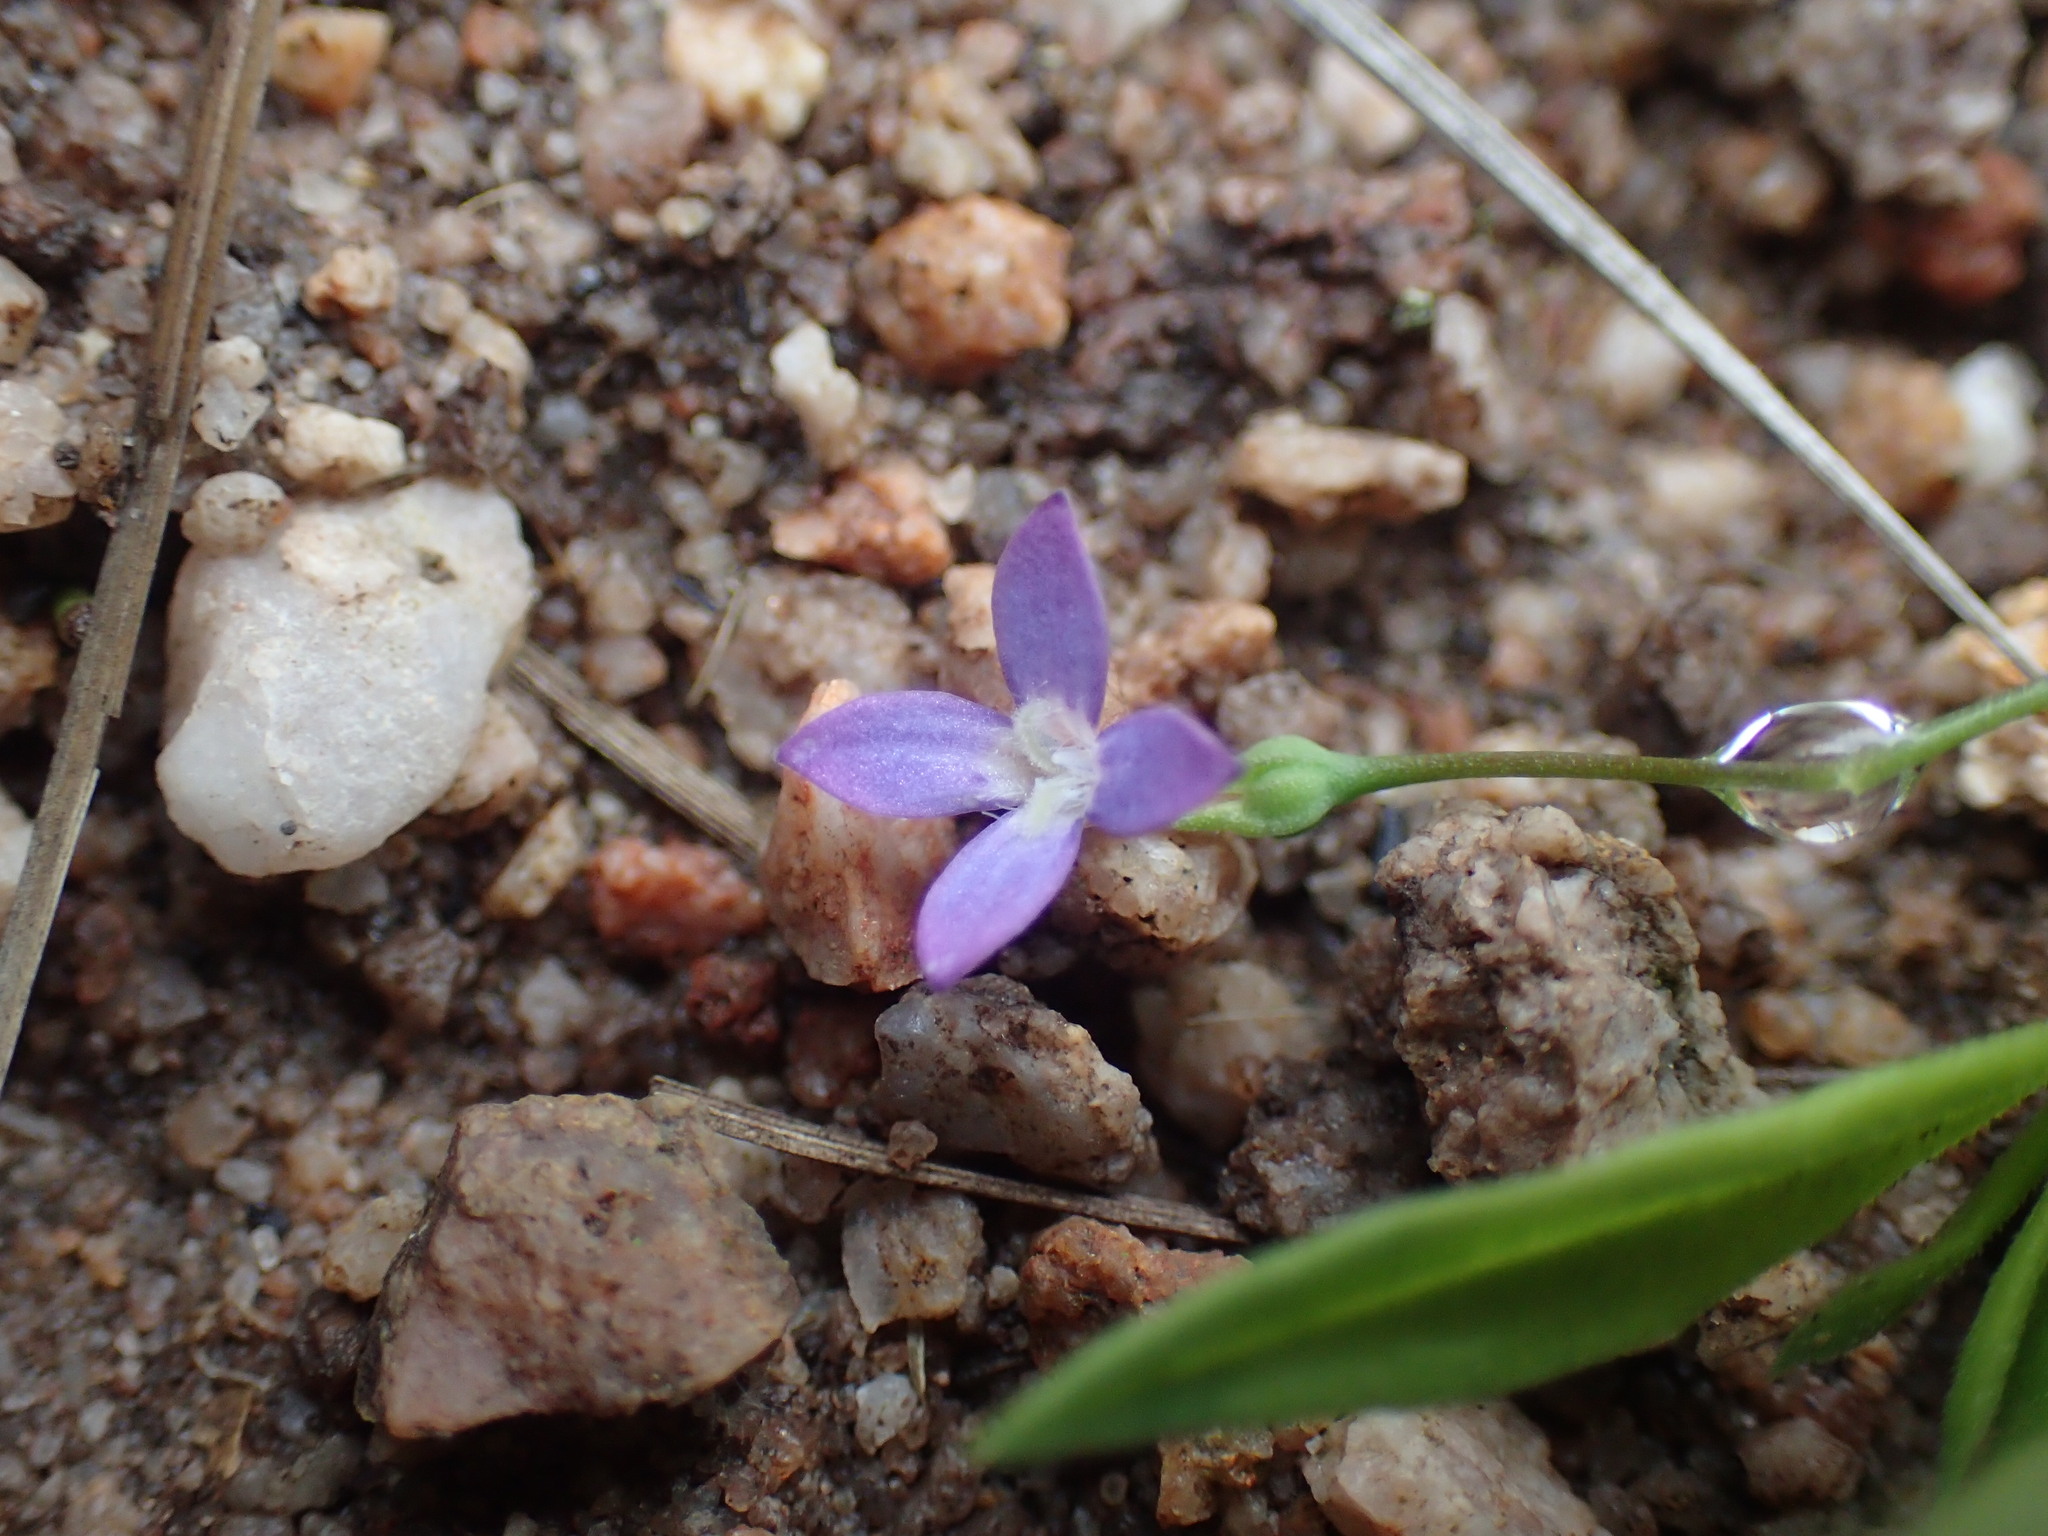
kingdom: Plantae
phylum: Tracheophyta
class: Magnoliopsida
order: Gentianales
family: Rubiaceae
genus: Oldenlandia
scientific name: Oldenlandia affinis
